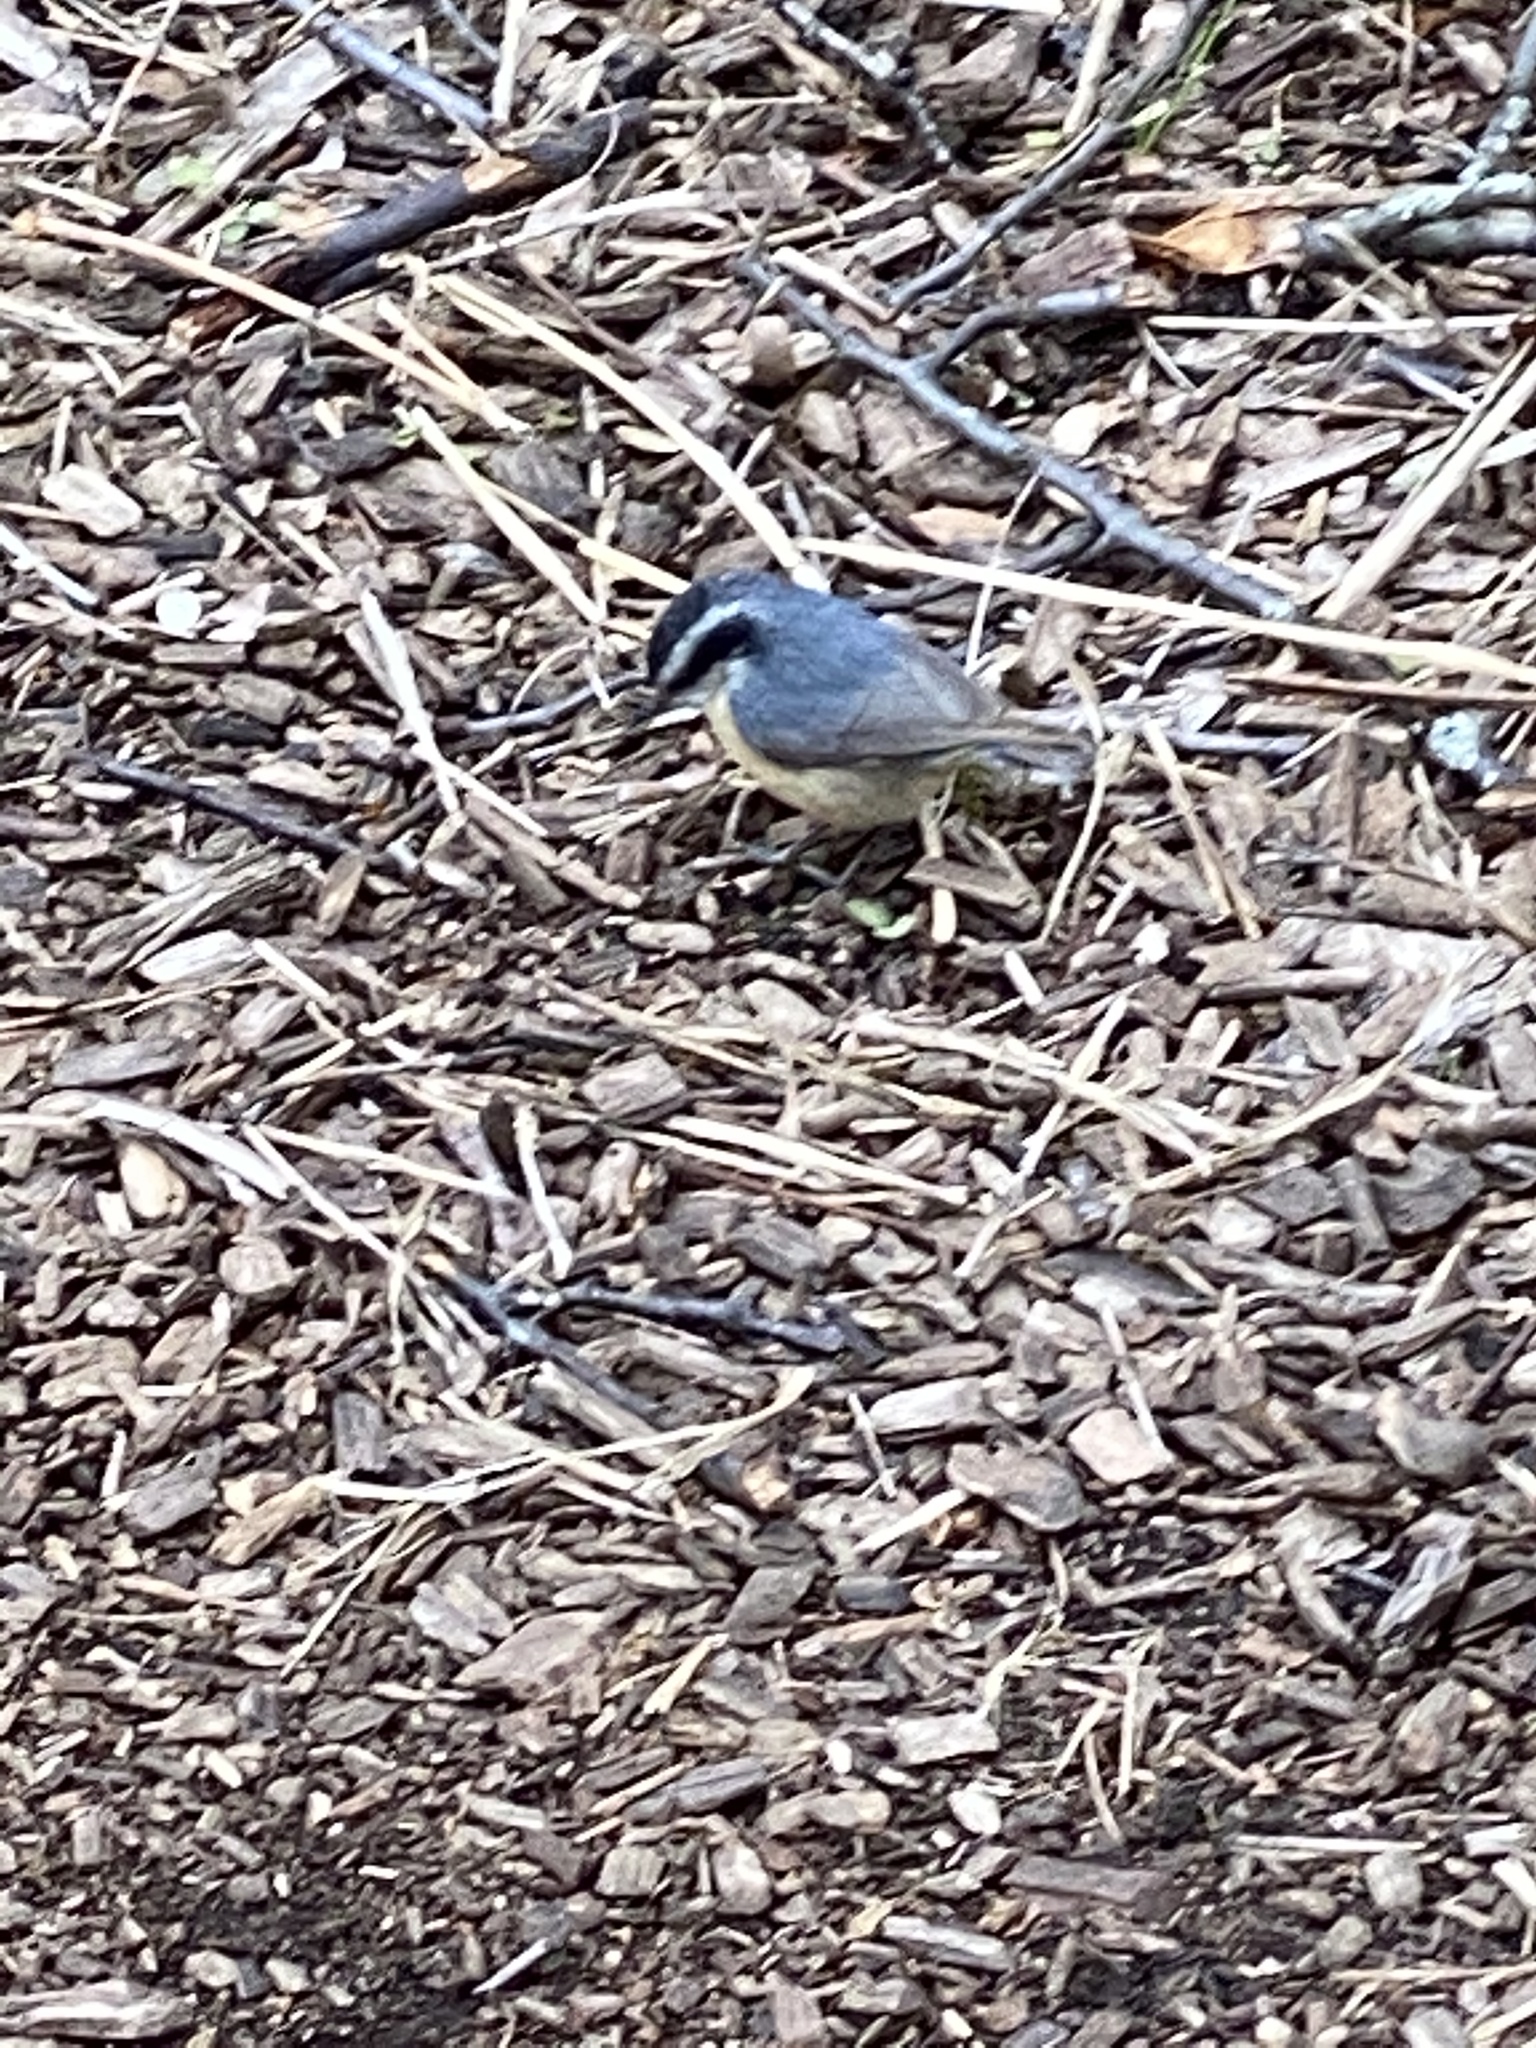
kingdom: Animalia
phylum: Chordata
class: Aves
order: Passeriformes
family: Sittidae
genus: Sitta
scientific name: Sitta canadensis
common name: Red-breasted nuthatch
